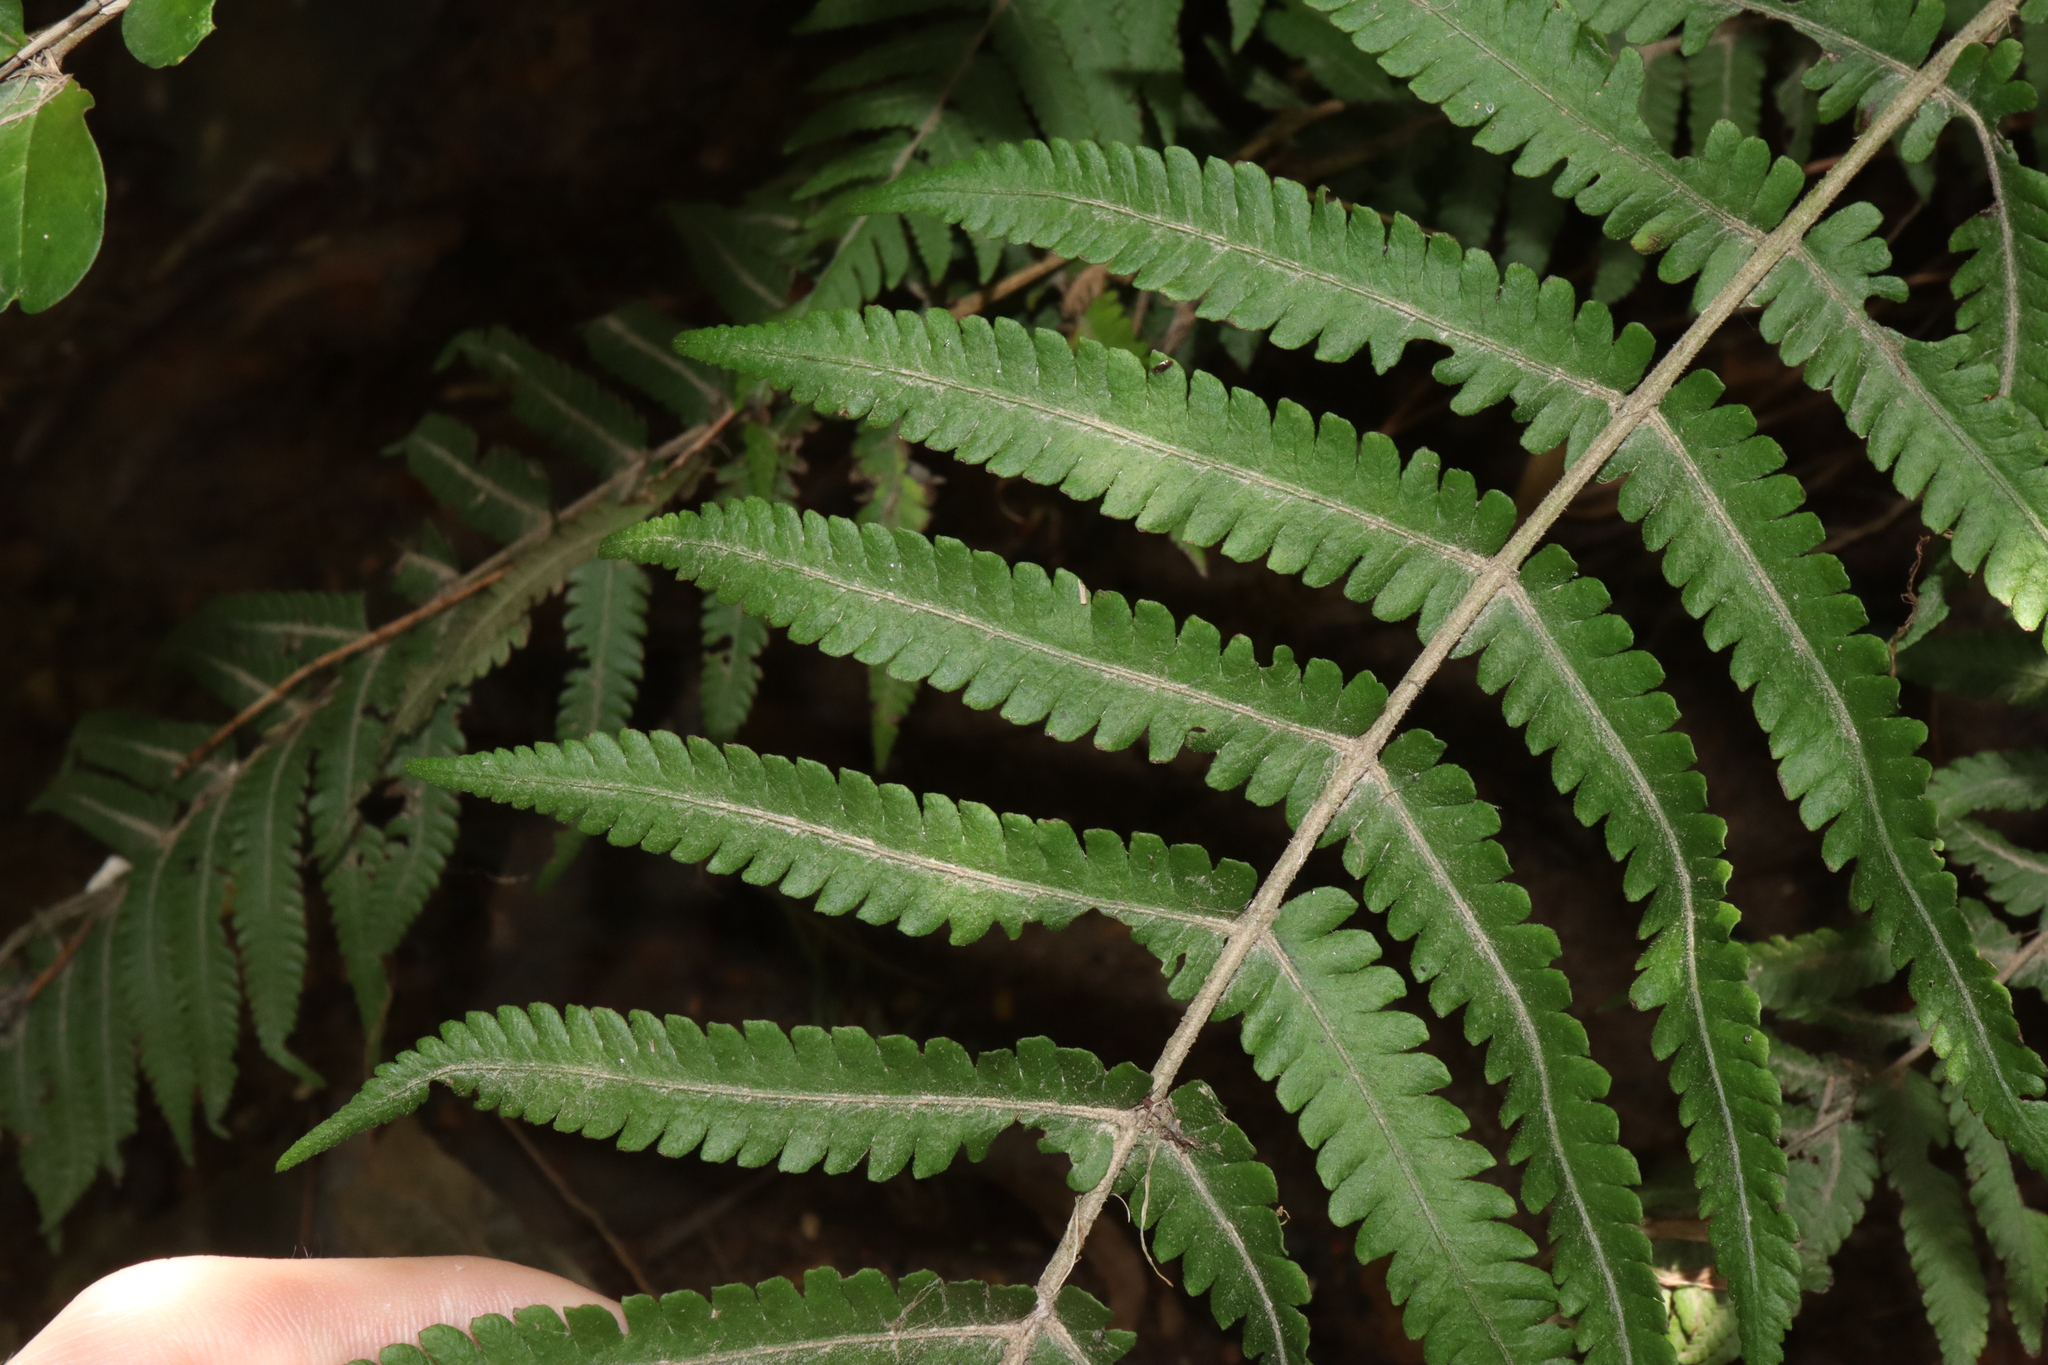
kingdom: Plantae
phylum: Tracheophyta
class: Polypodiopsida
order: Polypodiales
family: Thelypteridaceae
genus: Christella
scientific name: Christella dentata
